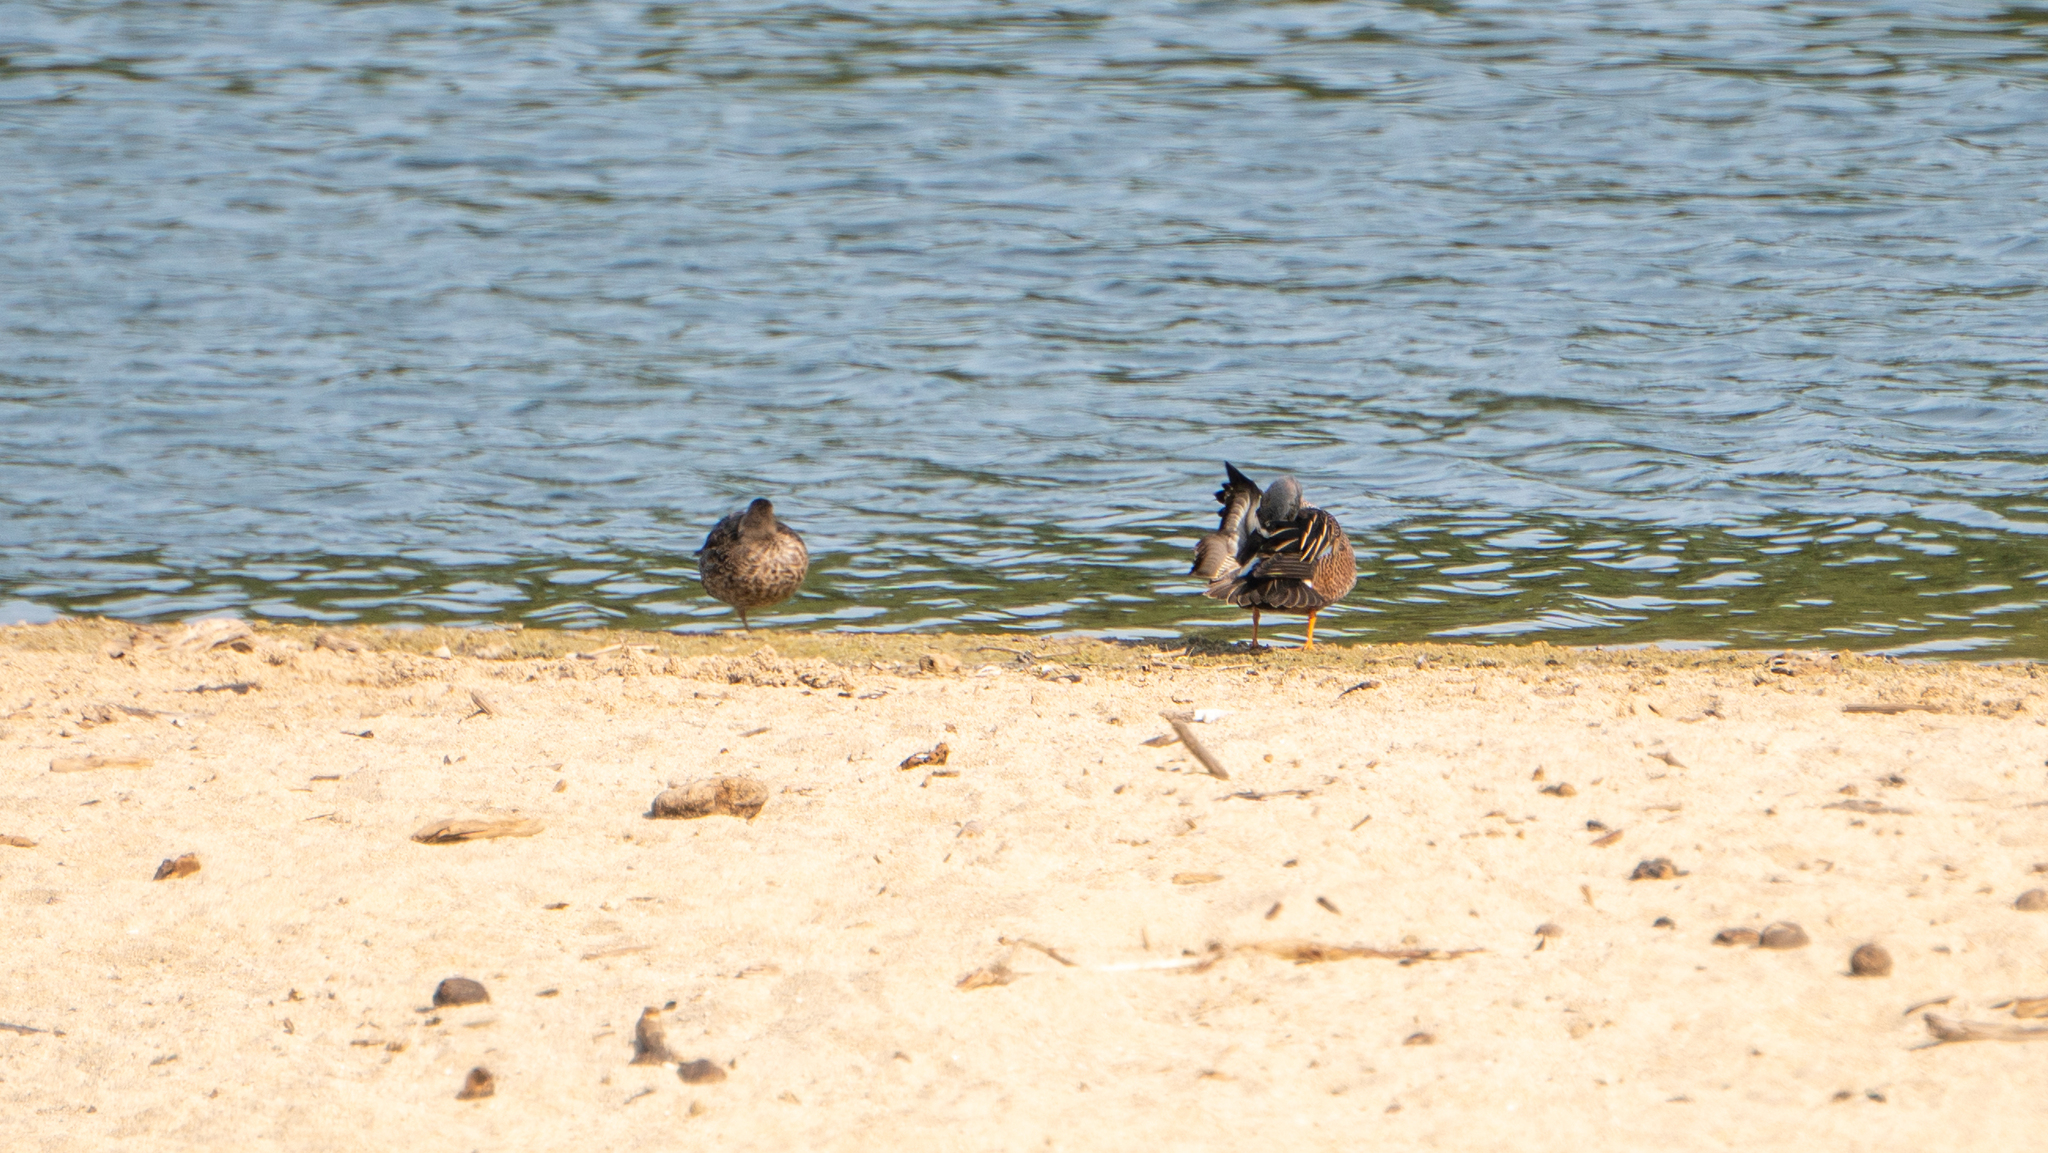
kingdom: Animalia
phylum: Chordata
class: Aves
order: Anseriformes
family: Anatidae
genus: Spatula
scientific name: Spatula discors
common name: Blue-winged teal
